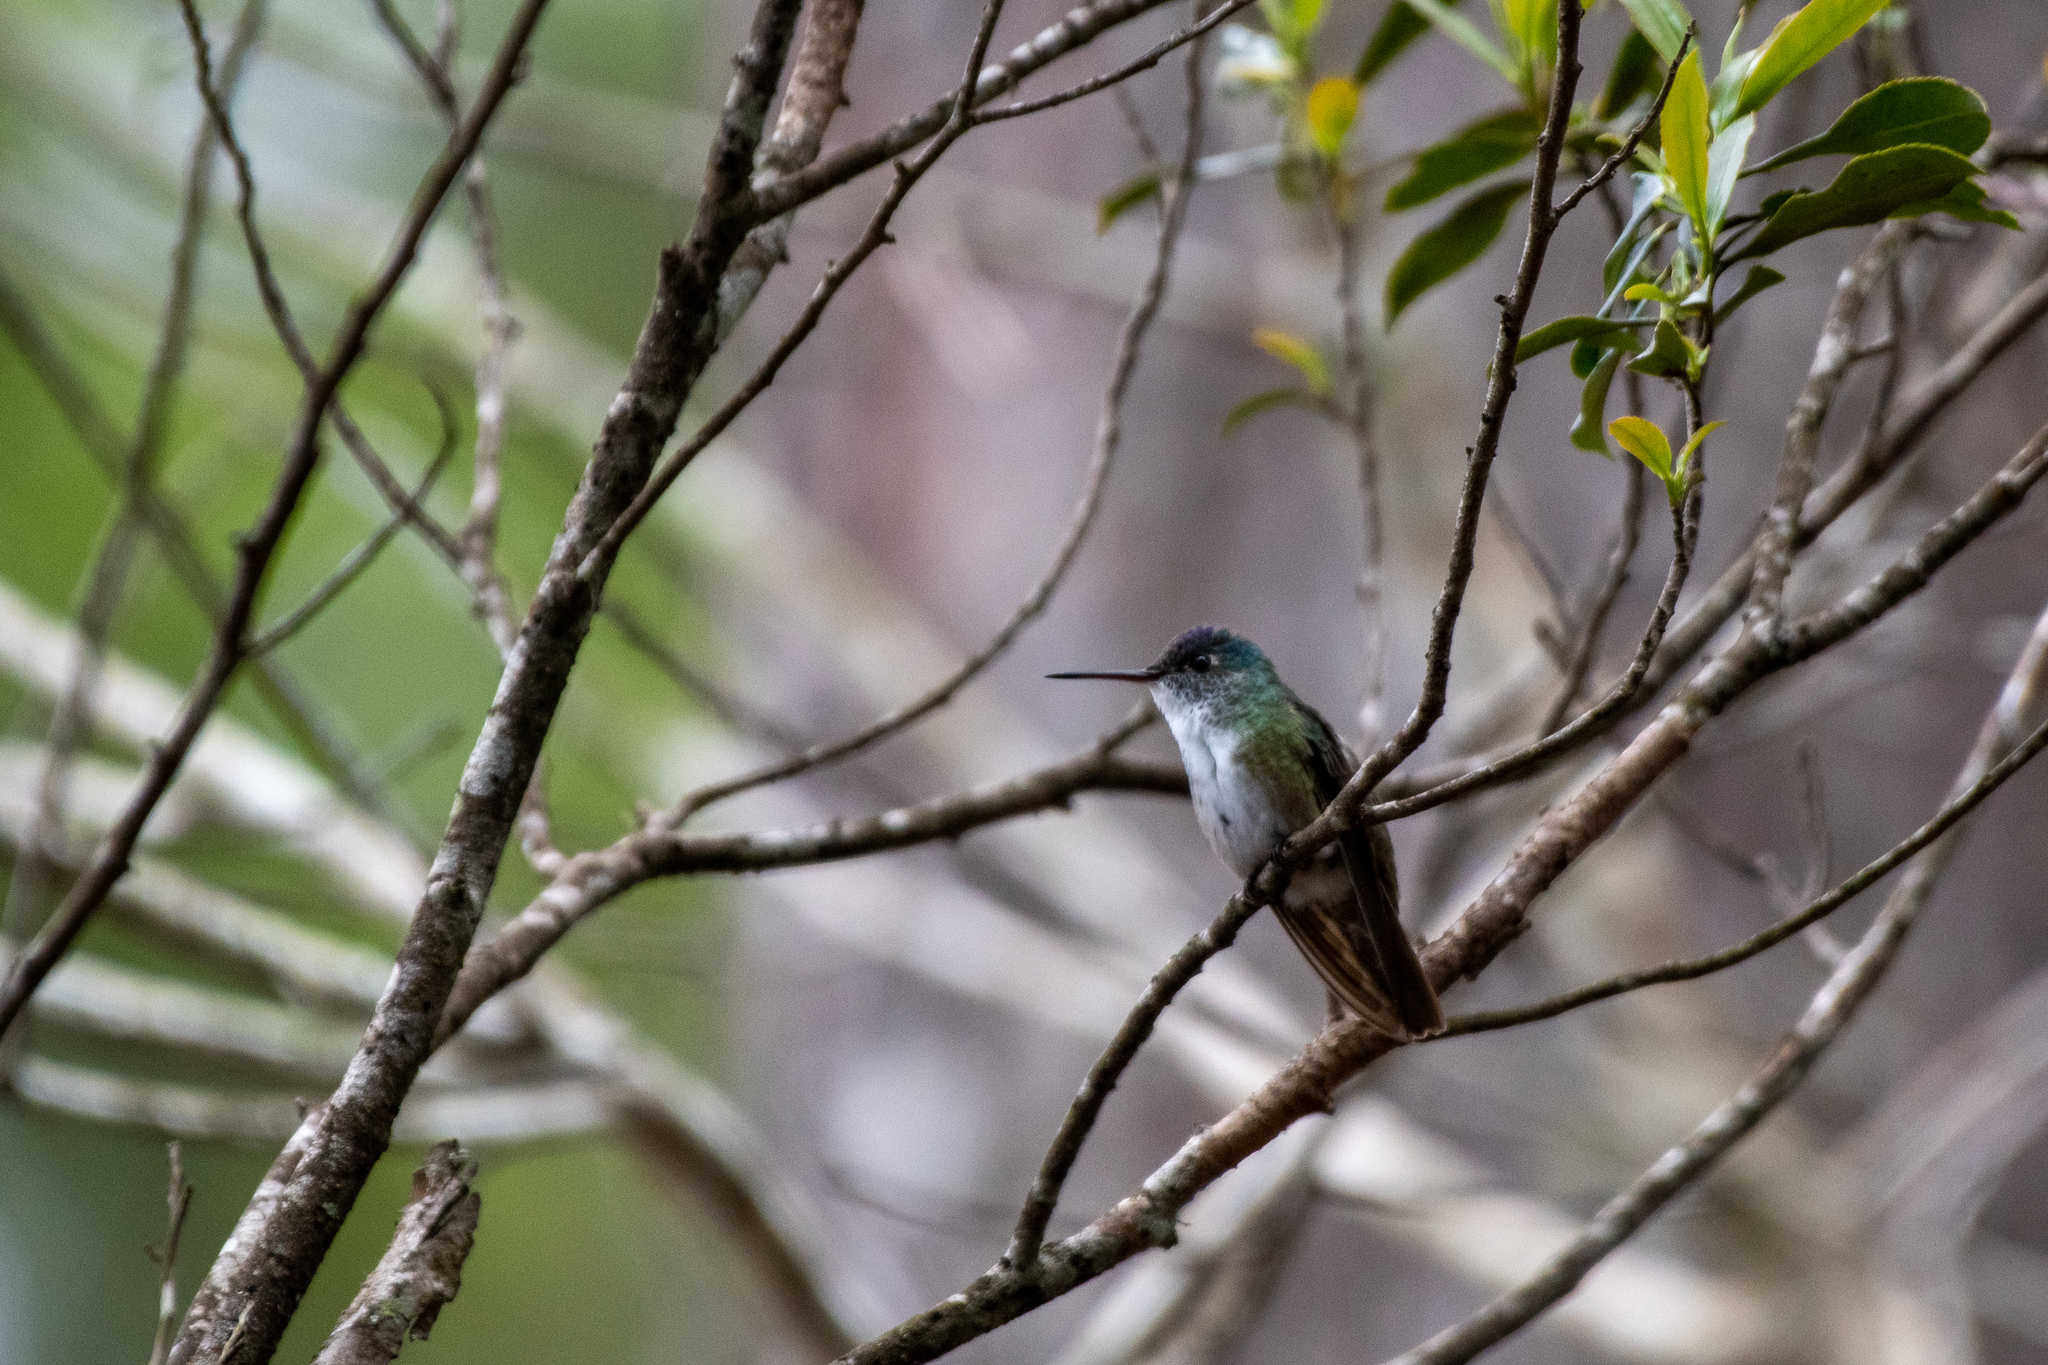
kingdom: Animalia
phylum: Chordata
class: Aves
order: Apodiformes
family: Trochilidae
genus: Saucerottia
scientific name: Saucerottia cyanocephala
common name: Azure-crowned hummingbird
